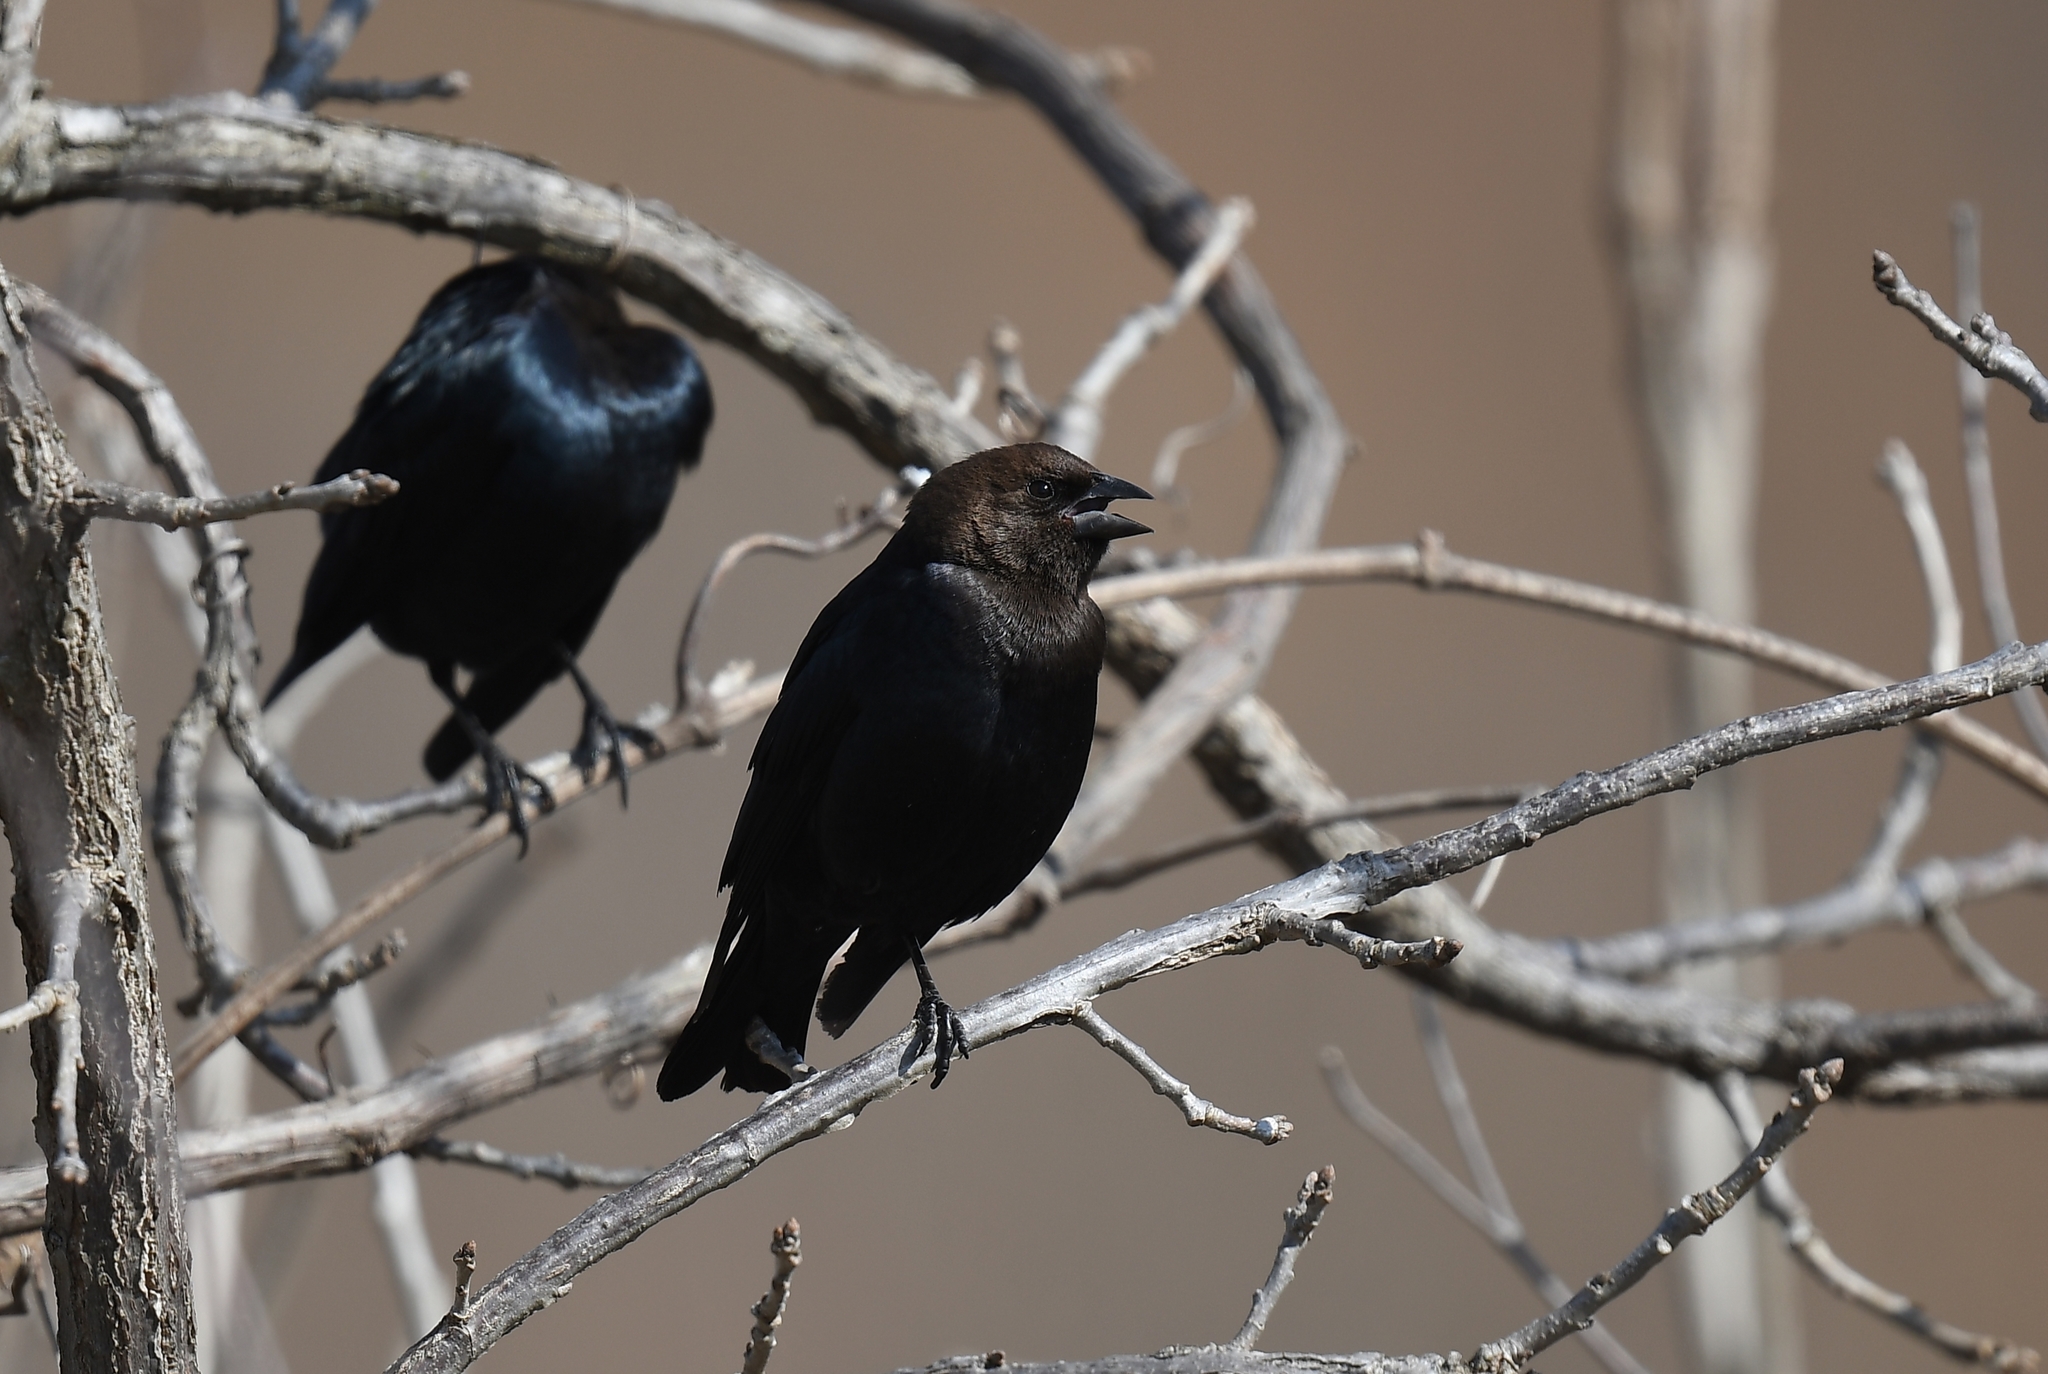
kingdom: Animalia
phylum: Chordata
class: Aves
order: Passeriformes
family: Icteridae
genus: Molothrus
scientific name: Molothrus ater
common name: Brown-headed cowbird
